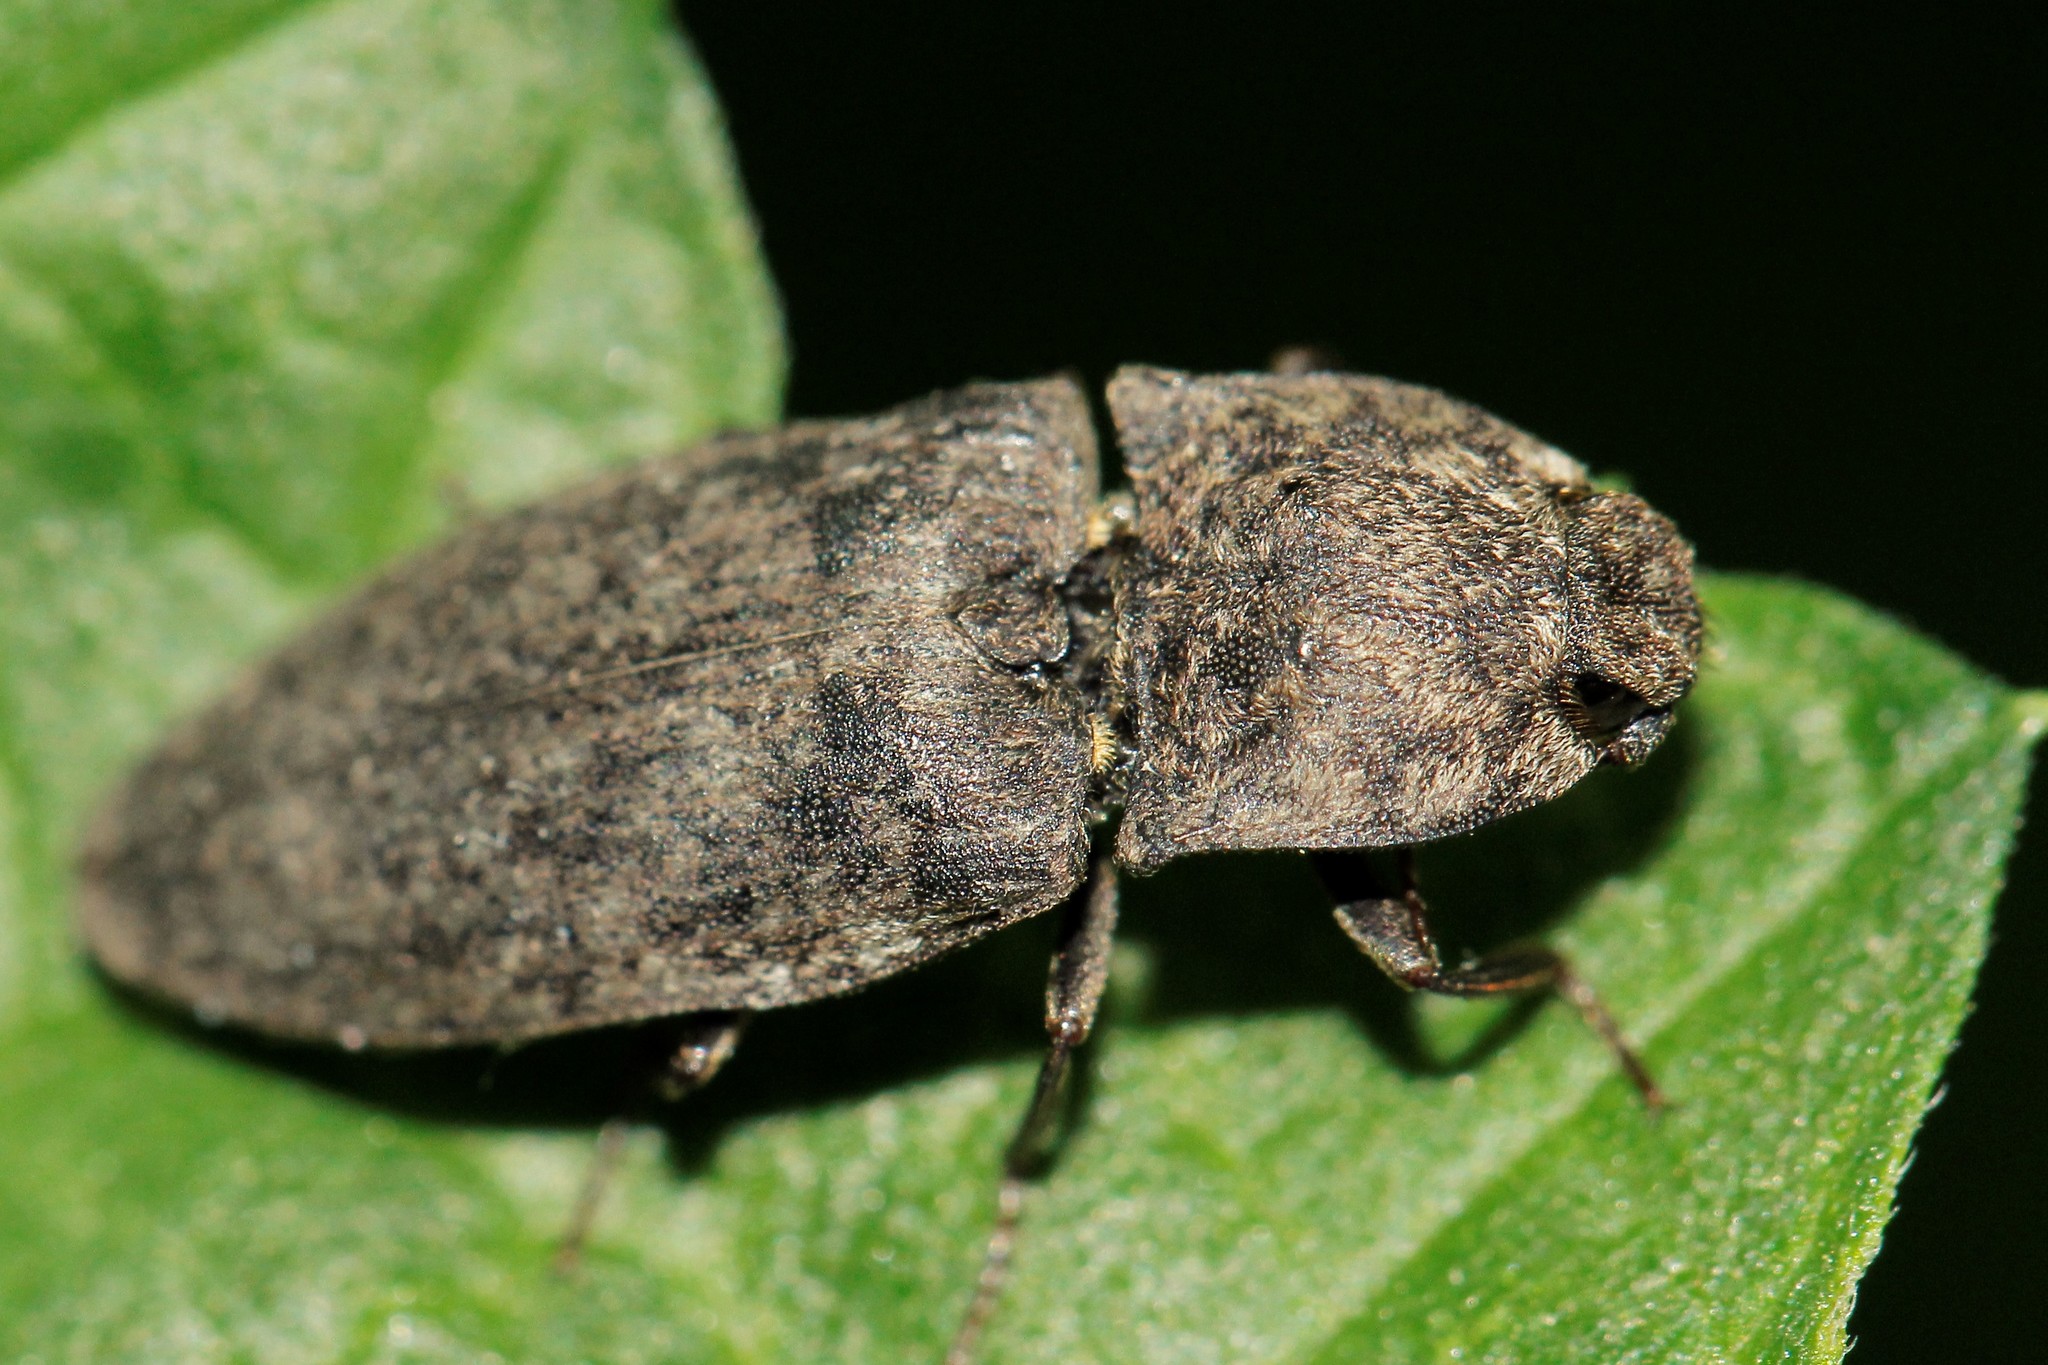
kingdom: Animalia
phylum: Arthropoda
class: Insecta
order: Coleoptera
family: Elateridae
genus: Agrypnus
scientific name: Agrypnus murinus
